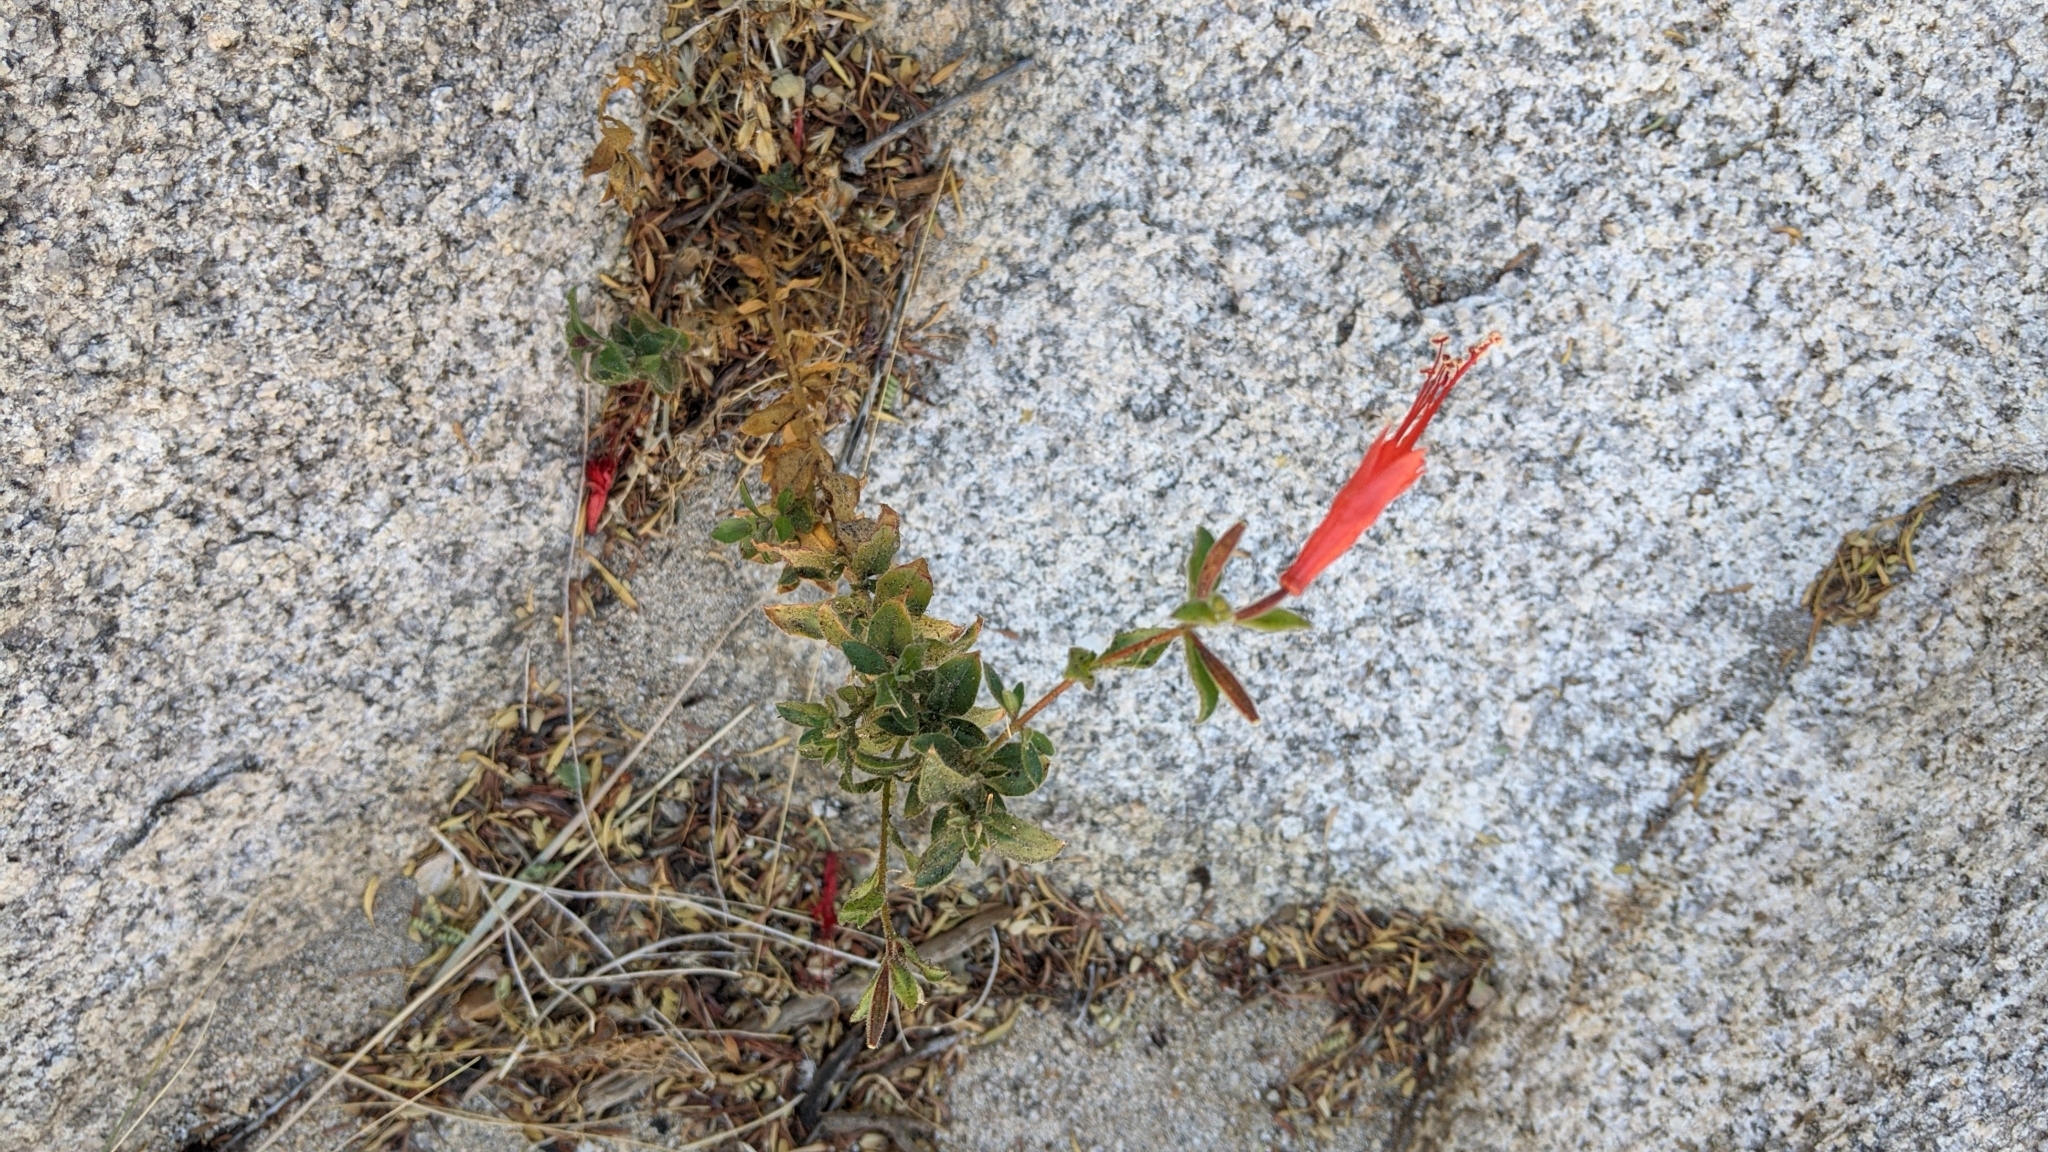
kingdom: Plantae
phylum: Tracheophyta
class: Magnoliopsida
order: Myrtales
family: Onagraceae
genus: Epilobium
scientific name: Epilobium canum
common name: California-fuchsia
